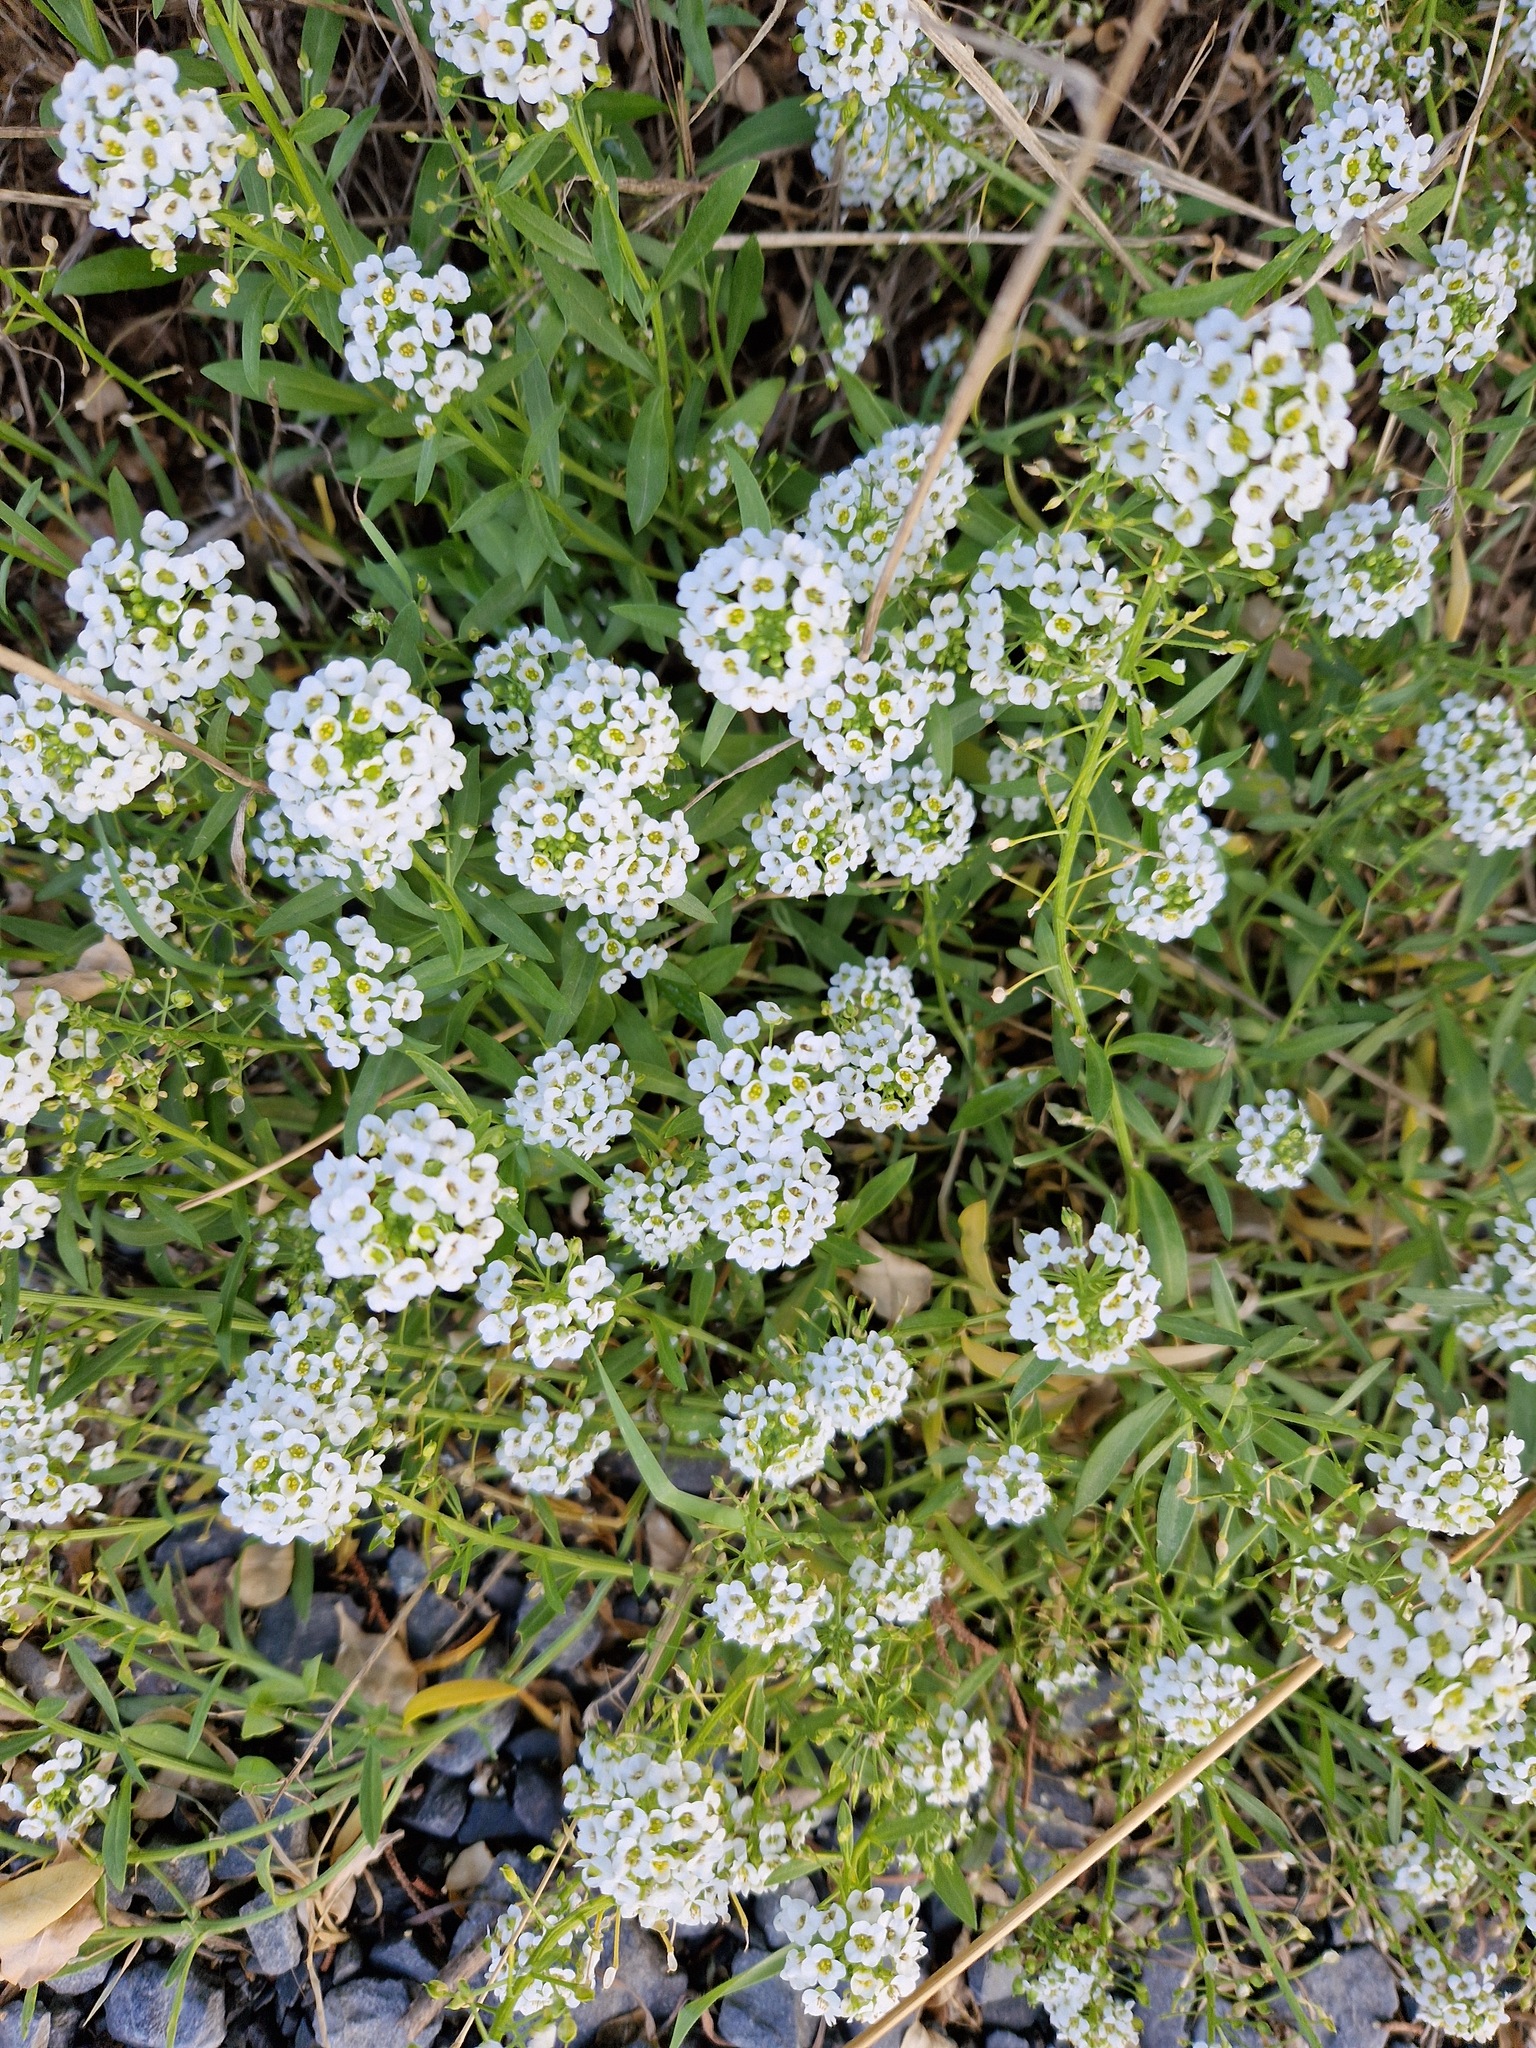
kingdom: Plantae
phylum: Tracheophyta
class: Magnoliopsida
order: Brassicales
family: Brassicaceae
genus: Lobularia
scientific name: Lobularia maritima
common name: Sweet alison
